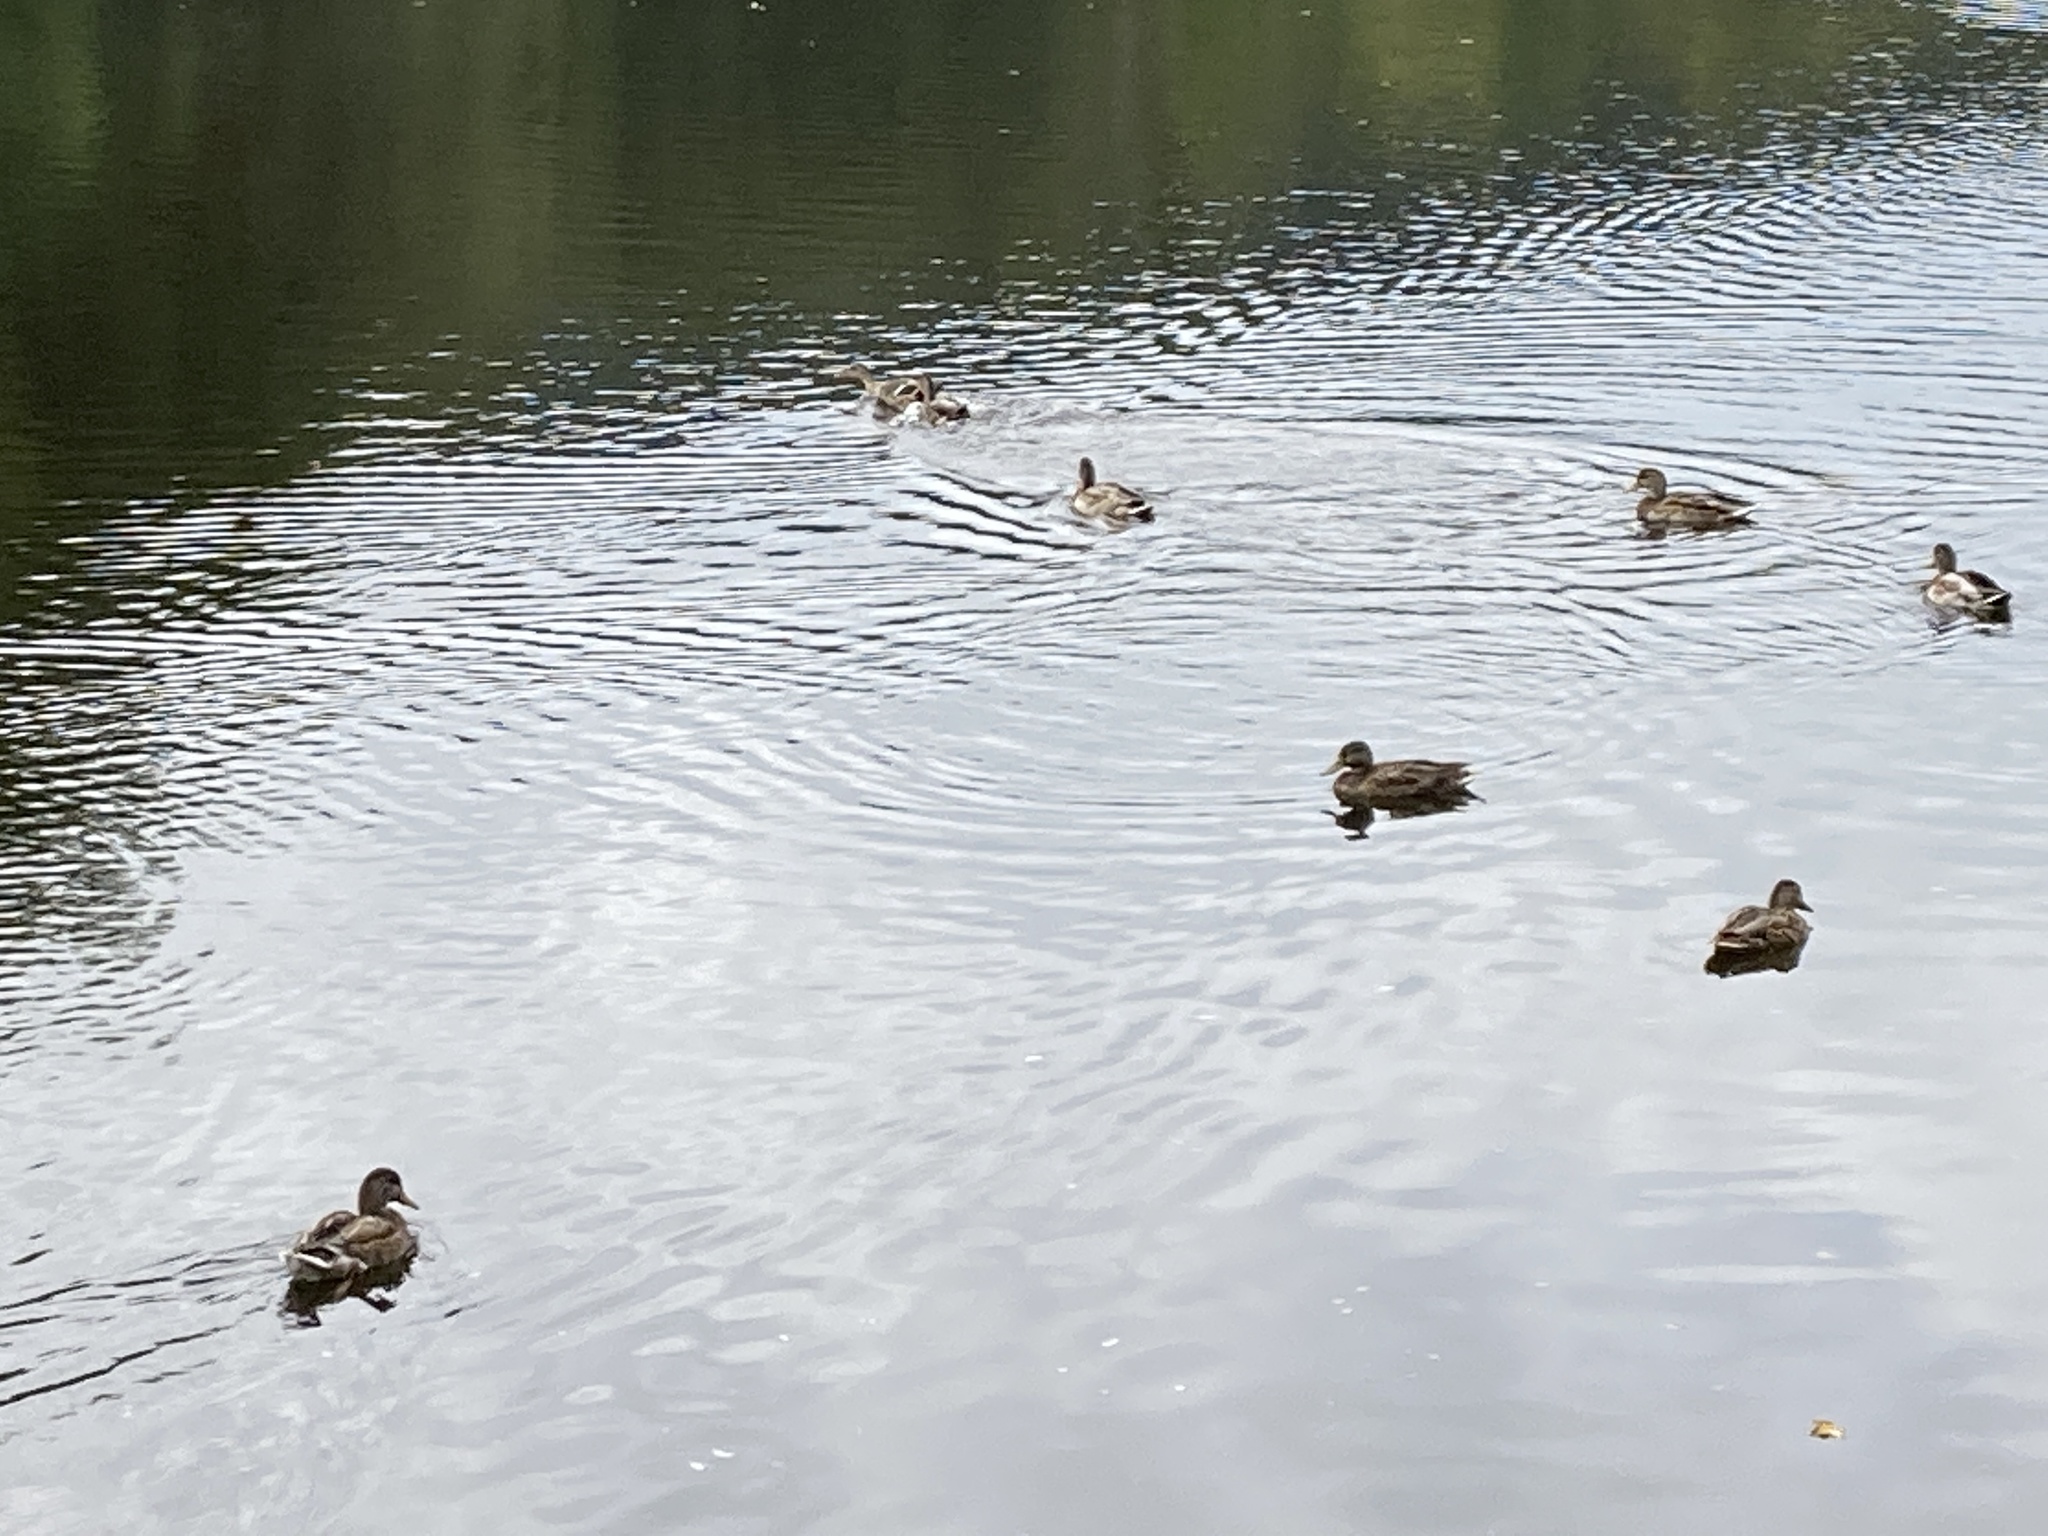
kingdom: Animalia
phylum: Chordata
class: Aves
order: Anseriformes
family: Anatidae
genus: Anas
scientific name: Anas platyrhynchos
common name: Mallard
